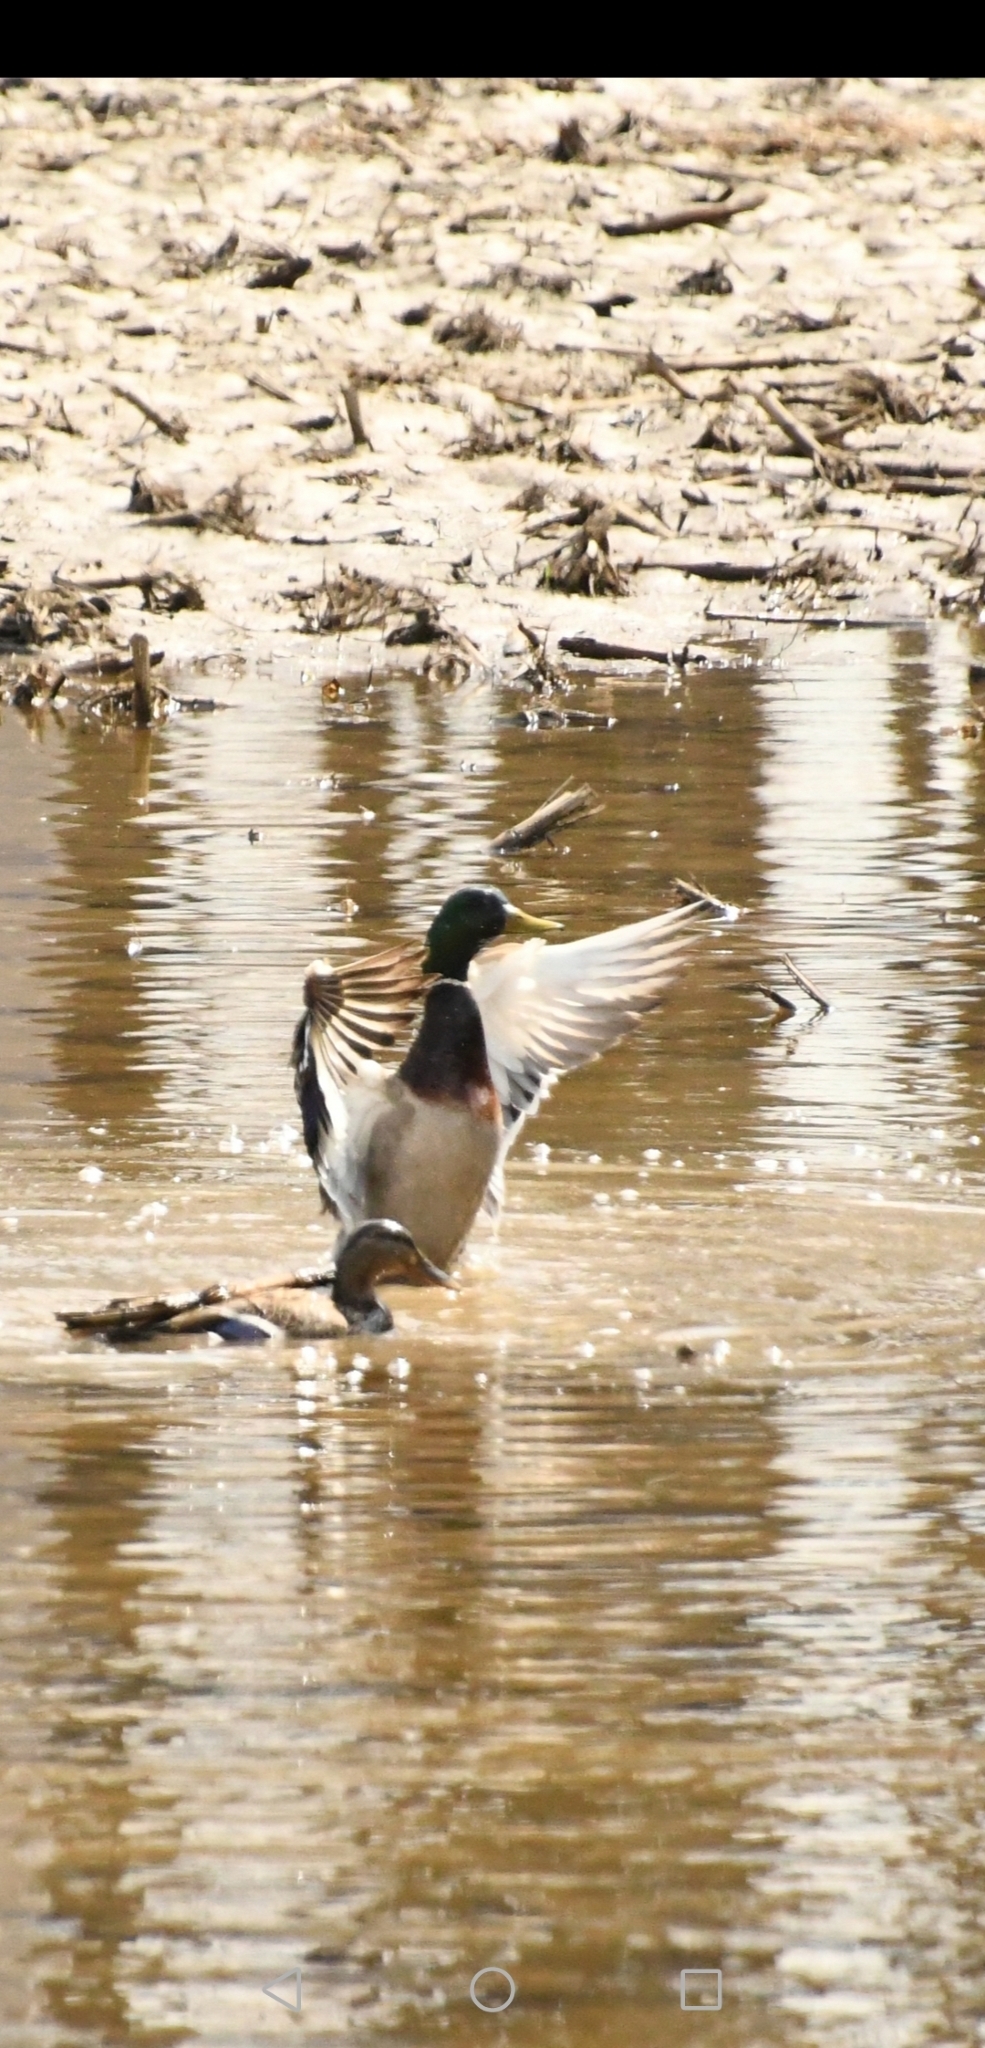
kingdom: Animalia
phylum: Chordata
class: Aves
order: Anseriformes
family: Anatidae
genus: Anas
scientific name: Anas platyrhynchos
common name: Mallard
